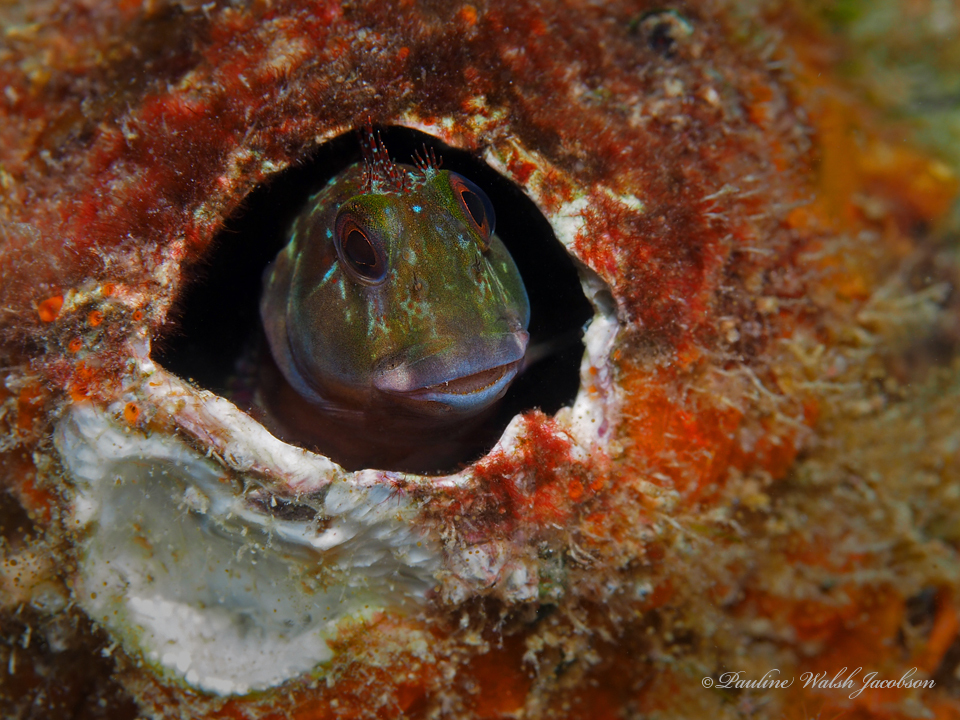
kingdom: Animalia
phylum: Chordata
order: Perciformes
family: Blenniidae
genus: Scartella
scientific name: Scartella cristata
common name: Molly miller
